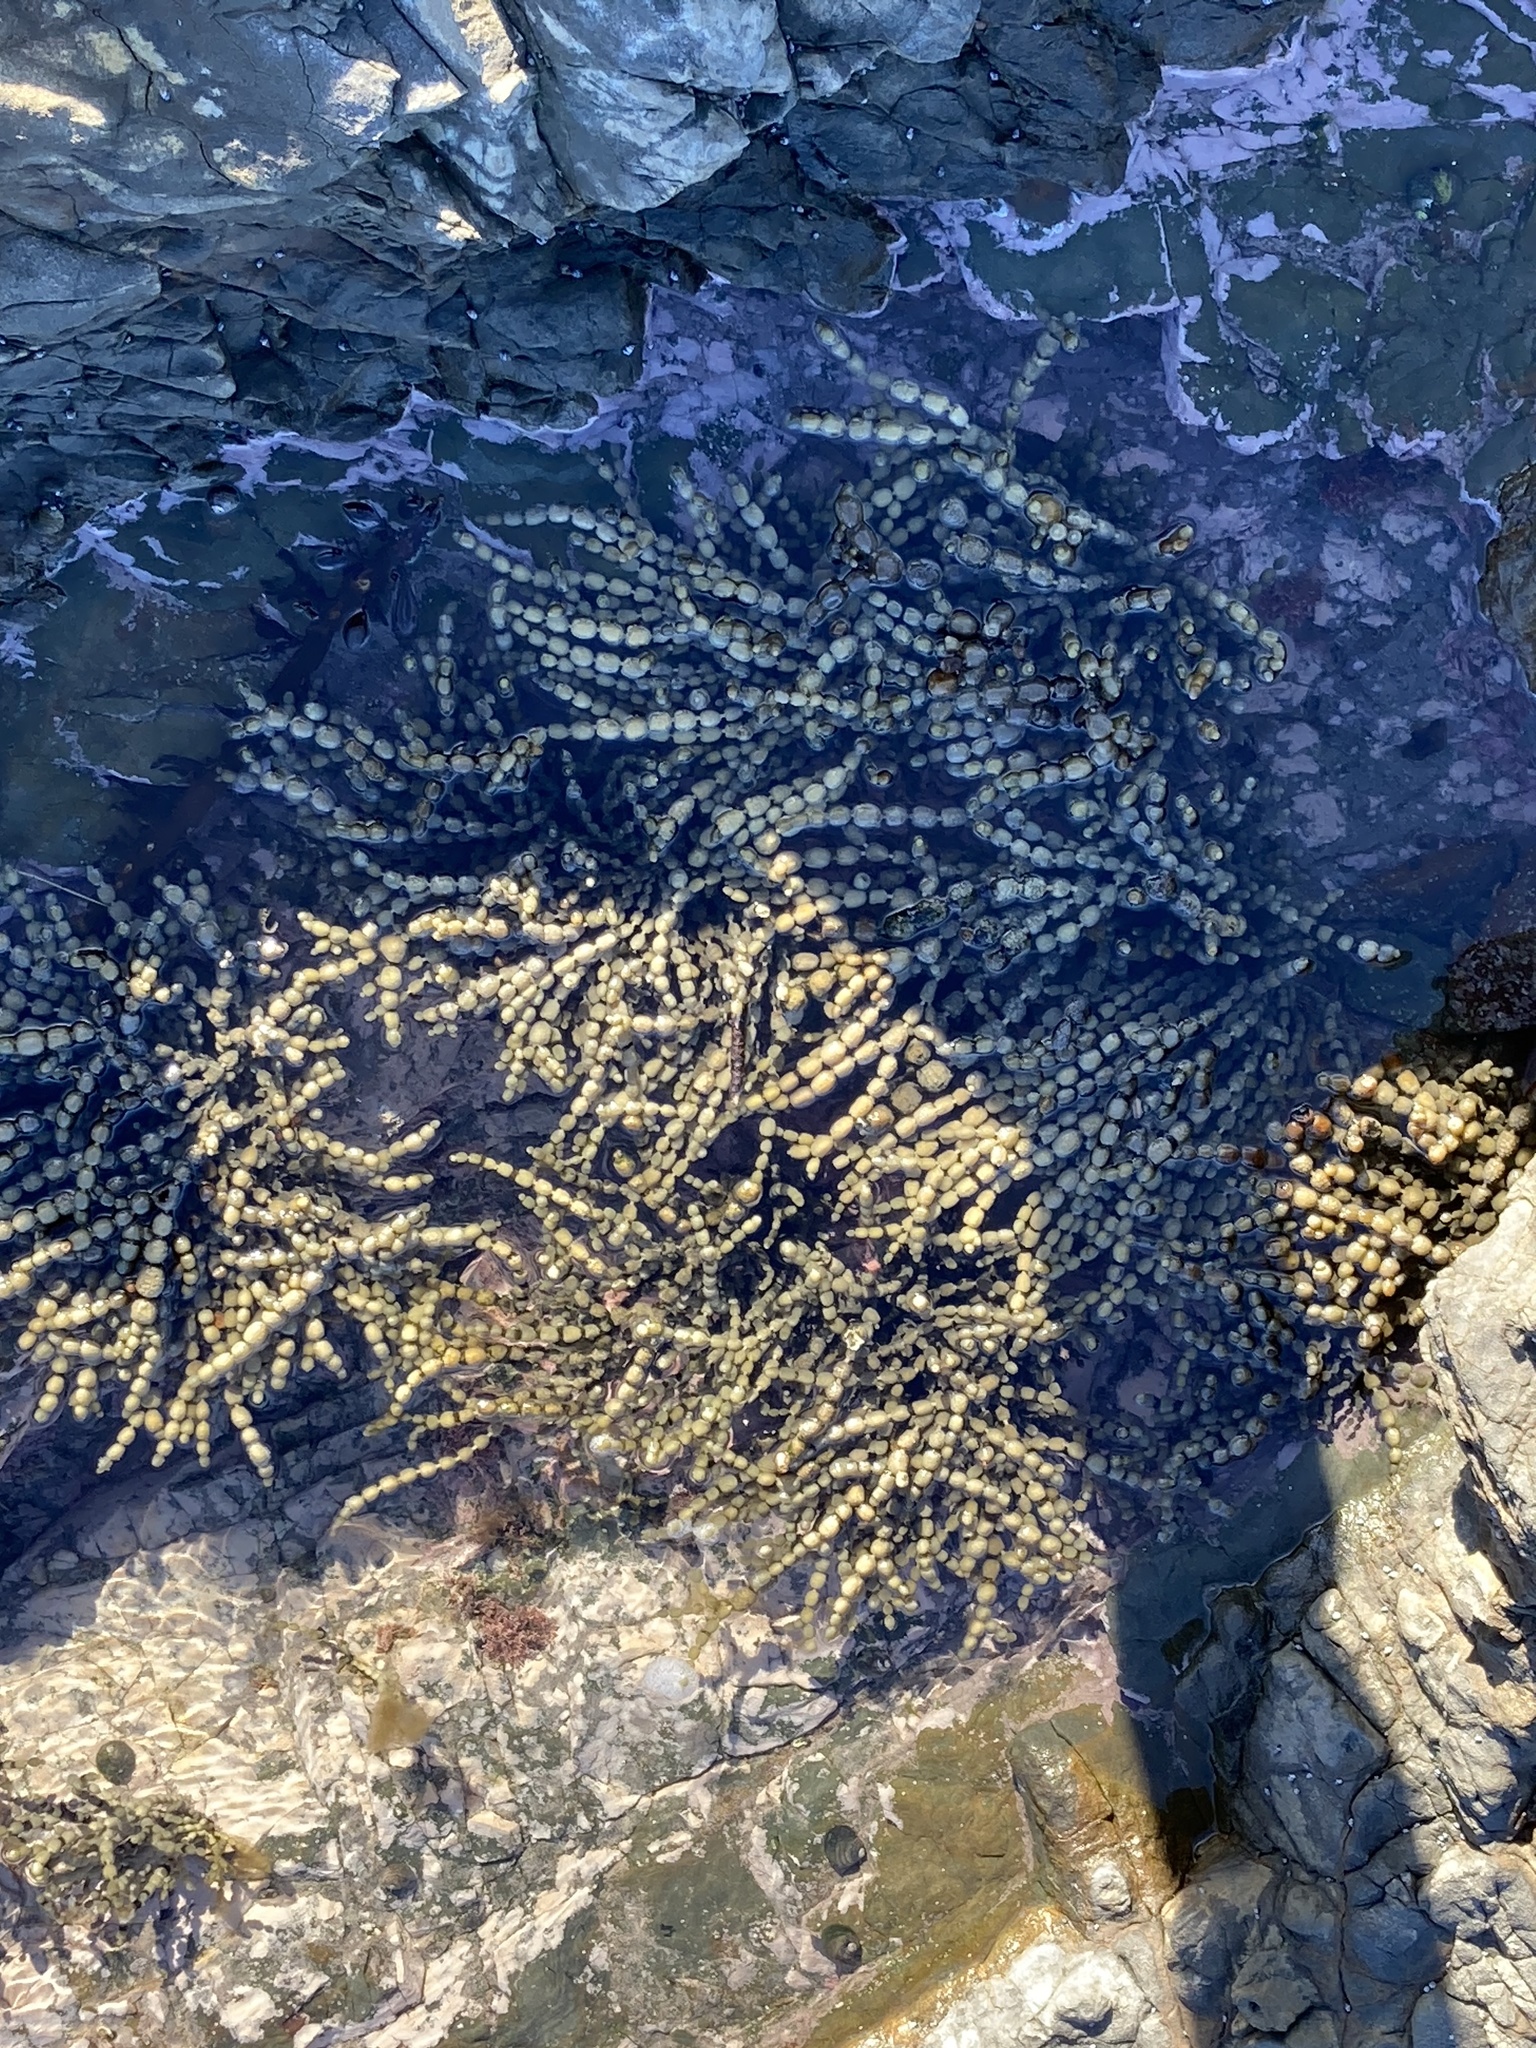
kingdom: Chromista
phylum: Ochrophyta
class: Phaeophyceae
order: Fucales
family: Hormosiraceae
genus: Hormosira
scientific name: Hormosira banksii
